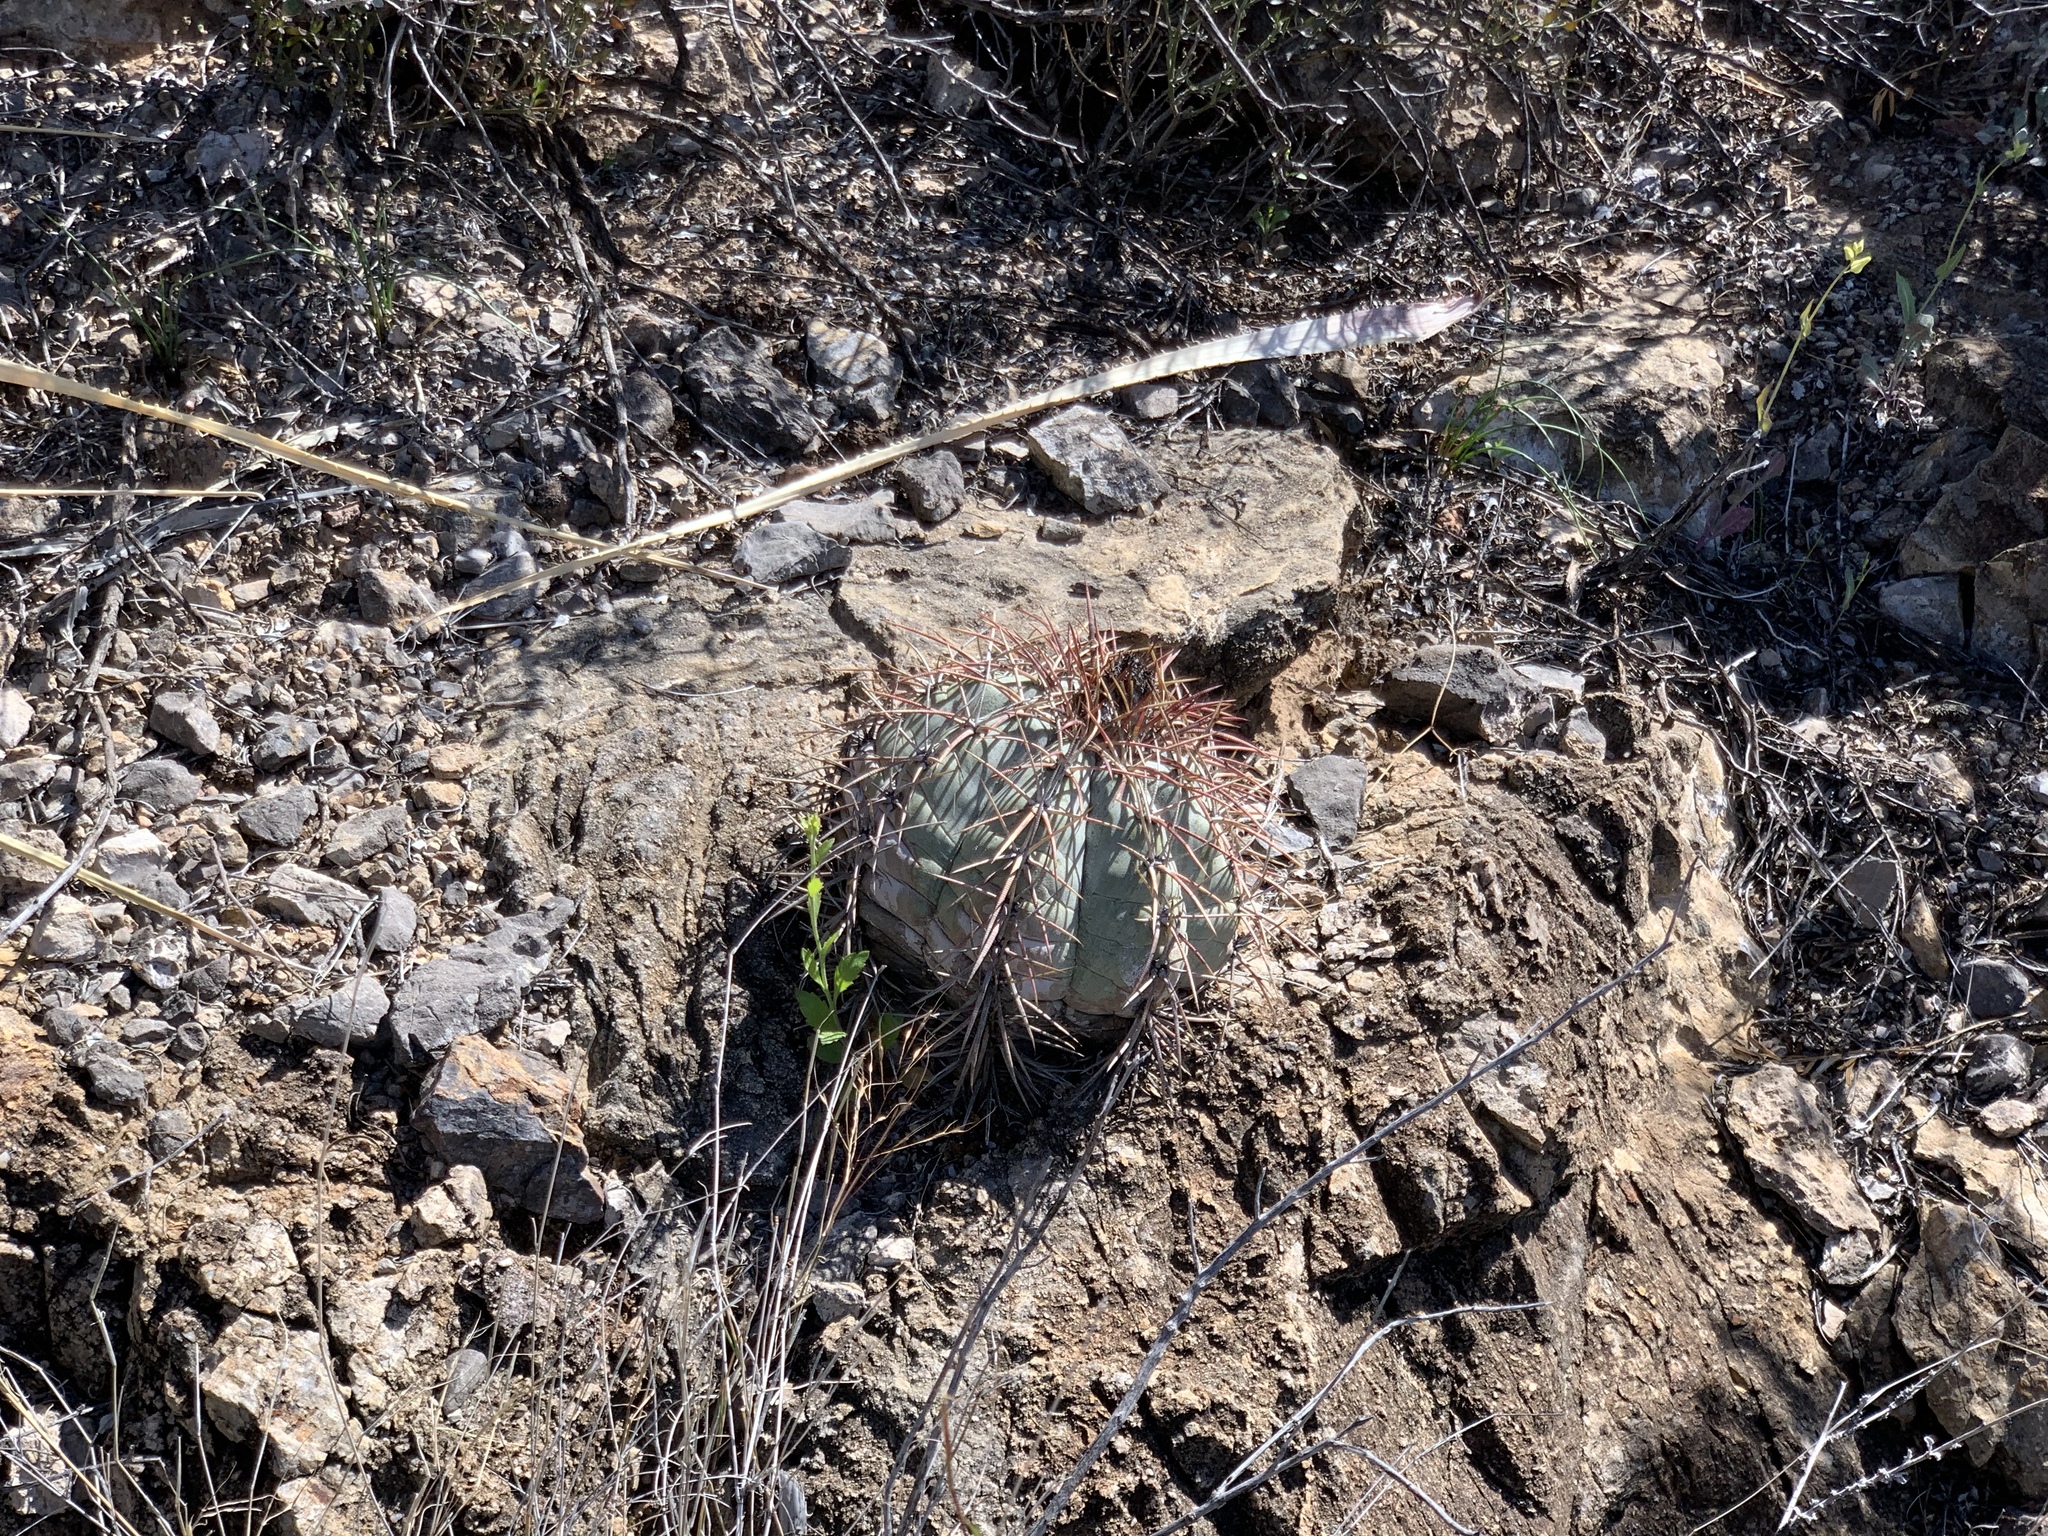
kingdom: Plantae
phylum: Tracheophyta
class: Magnoliopsida
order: Caryophyllales
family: Cactaceae
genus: Echinocactus
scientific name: Echinocactus horizonthalonius
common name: Devilshead
